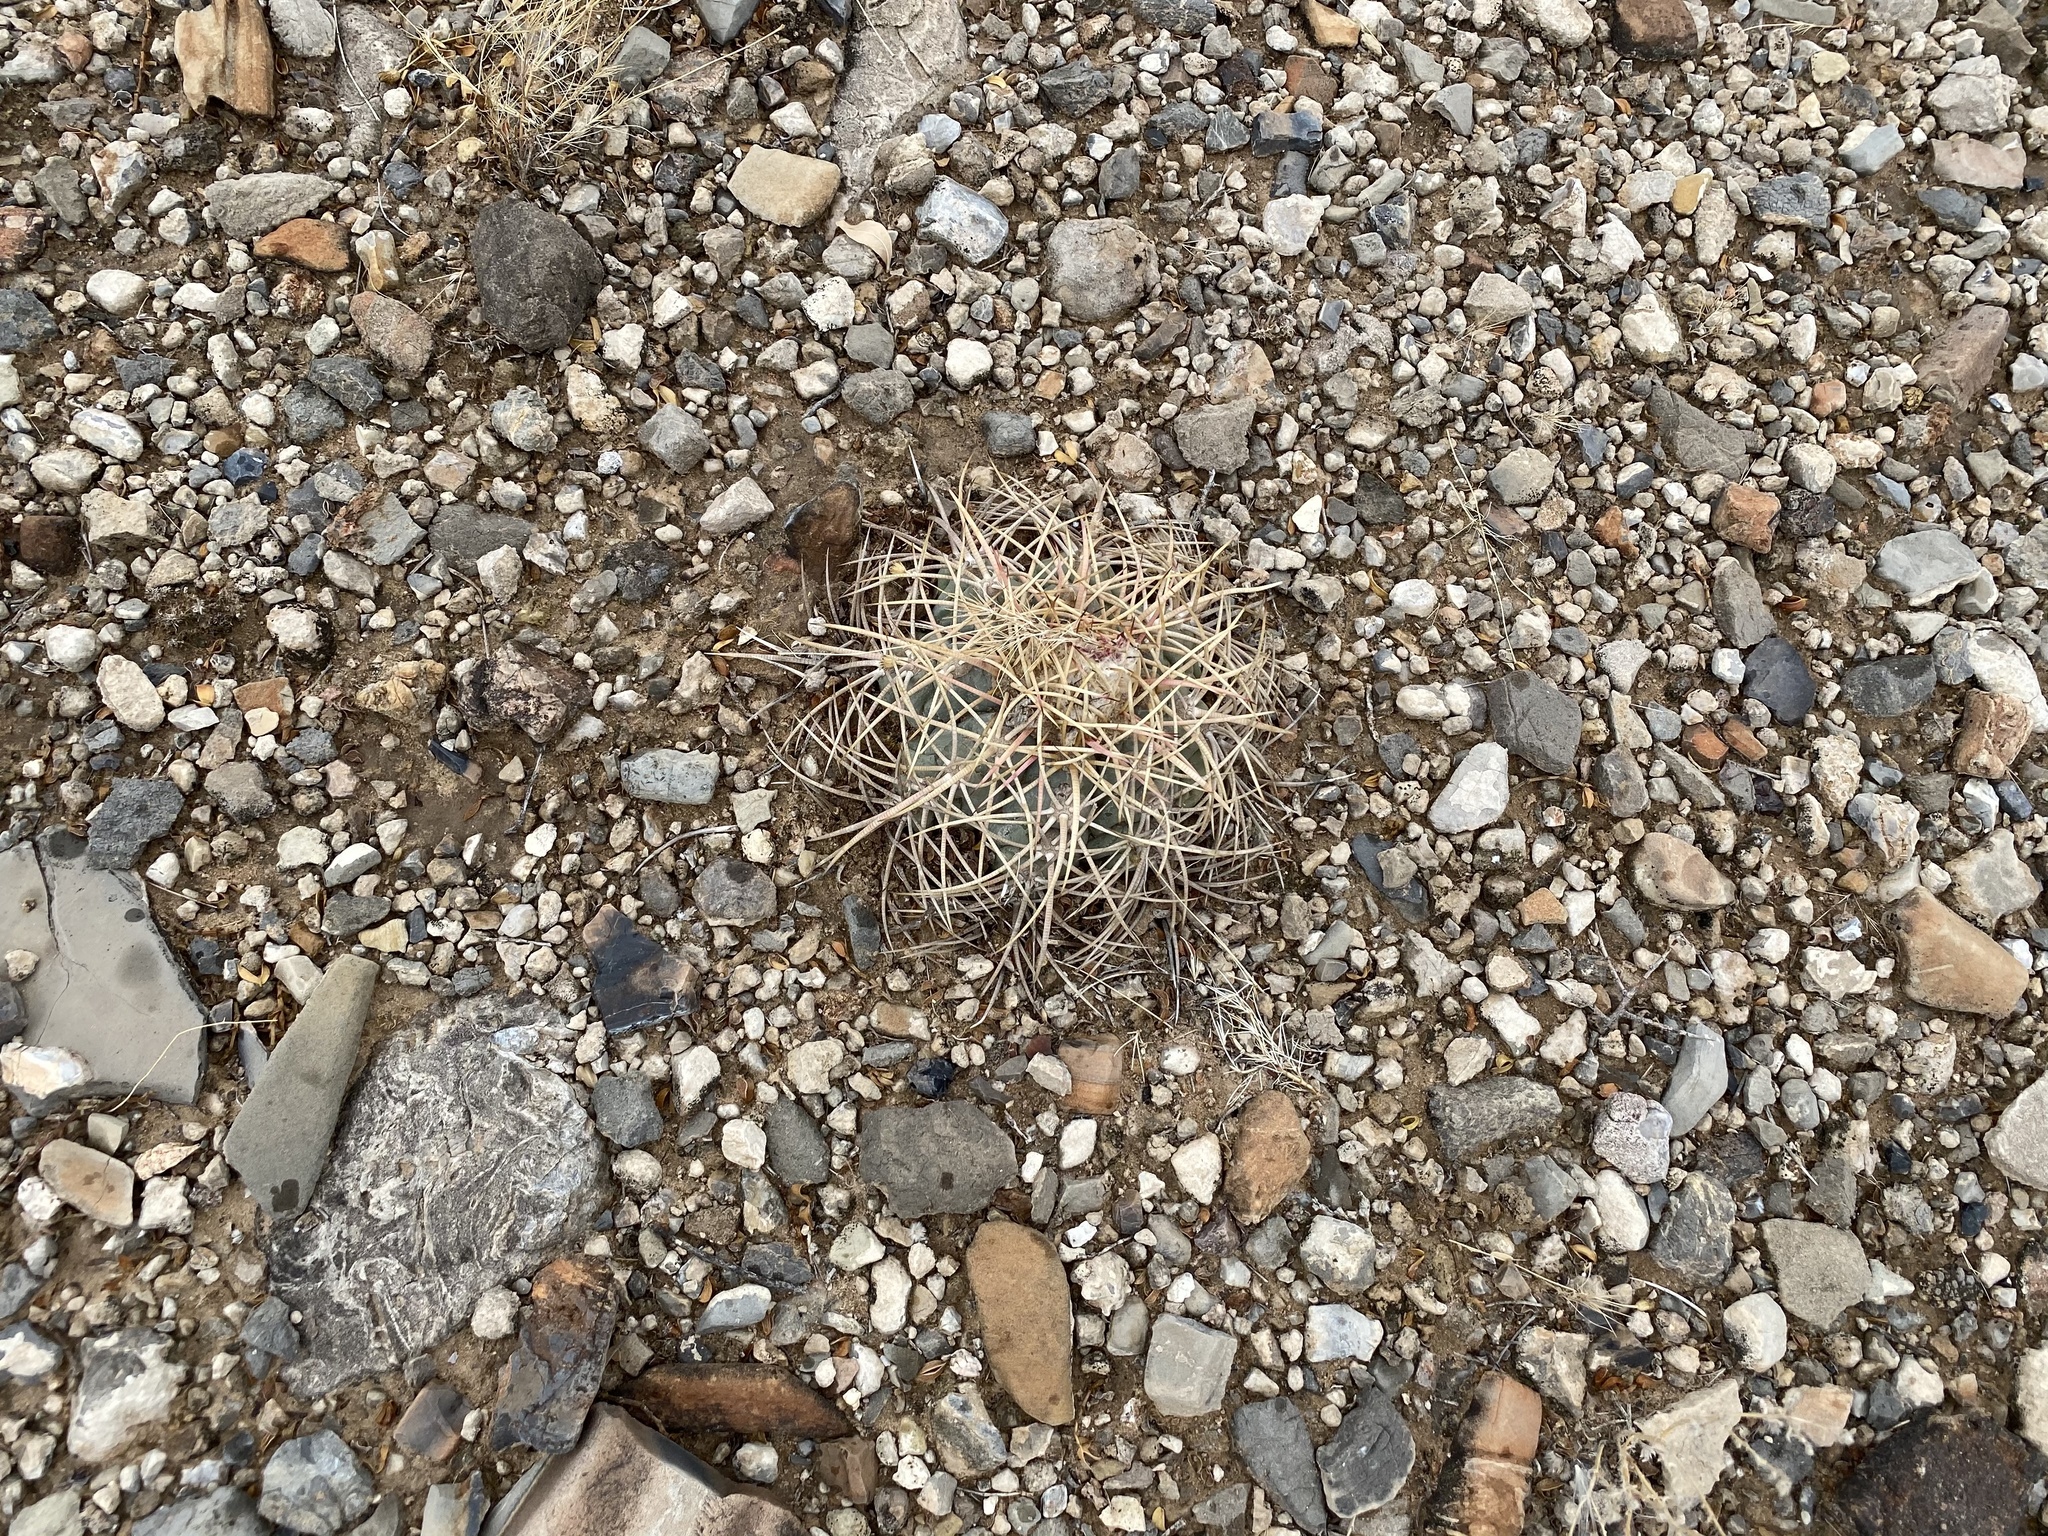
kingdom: Plantae
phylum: Tracheophyta
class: Magnoliopsida
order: Caryophyllales
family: Cactaceae
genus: Echinocactus
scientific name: Echinocactus horizonthalonius
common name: Devilshead
